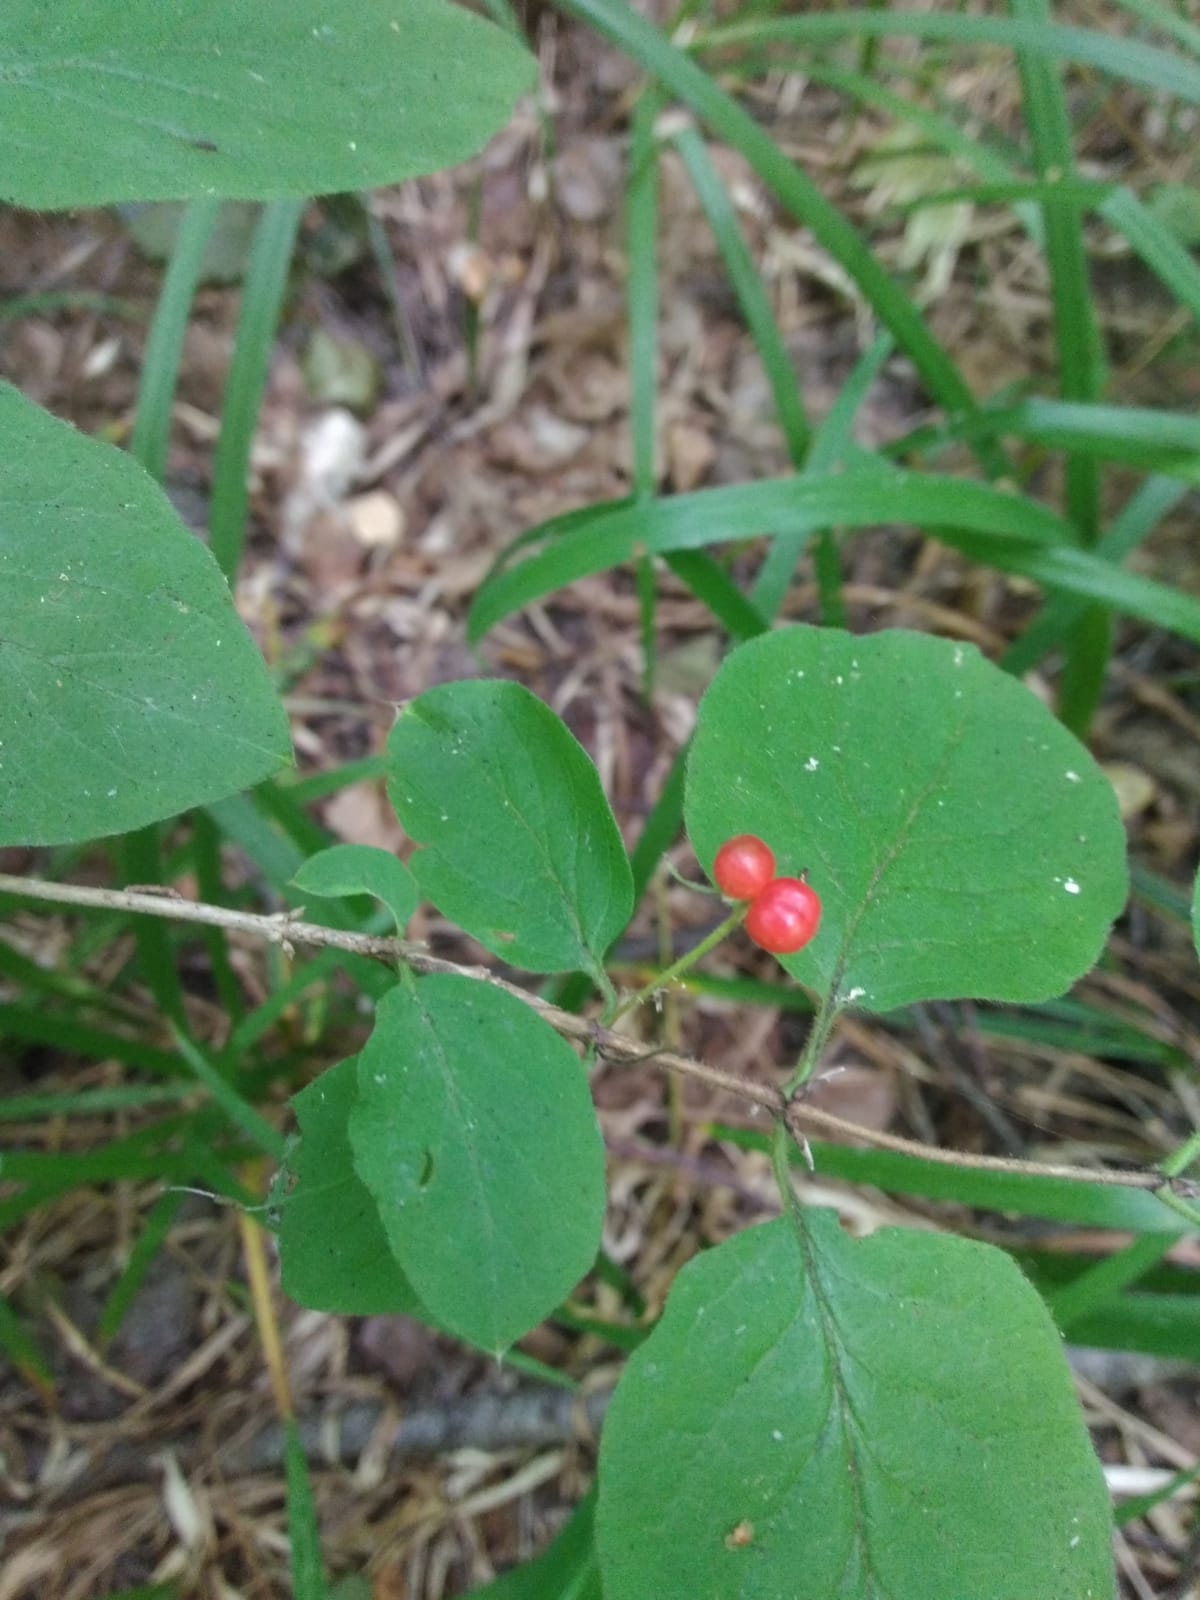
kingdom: Plantae
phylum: Tracheophyta
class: Magnoliopsida
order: Dipsacales
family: Caprifoliaceae
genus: Lonicera
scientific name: Lonicera xylosteum
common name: Fly honeysuckle
